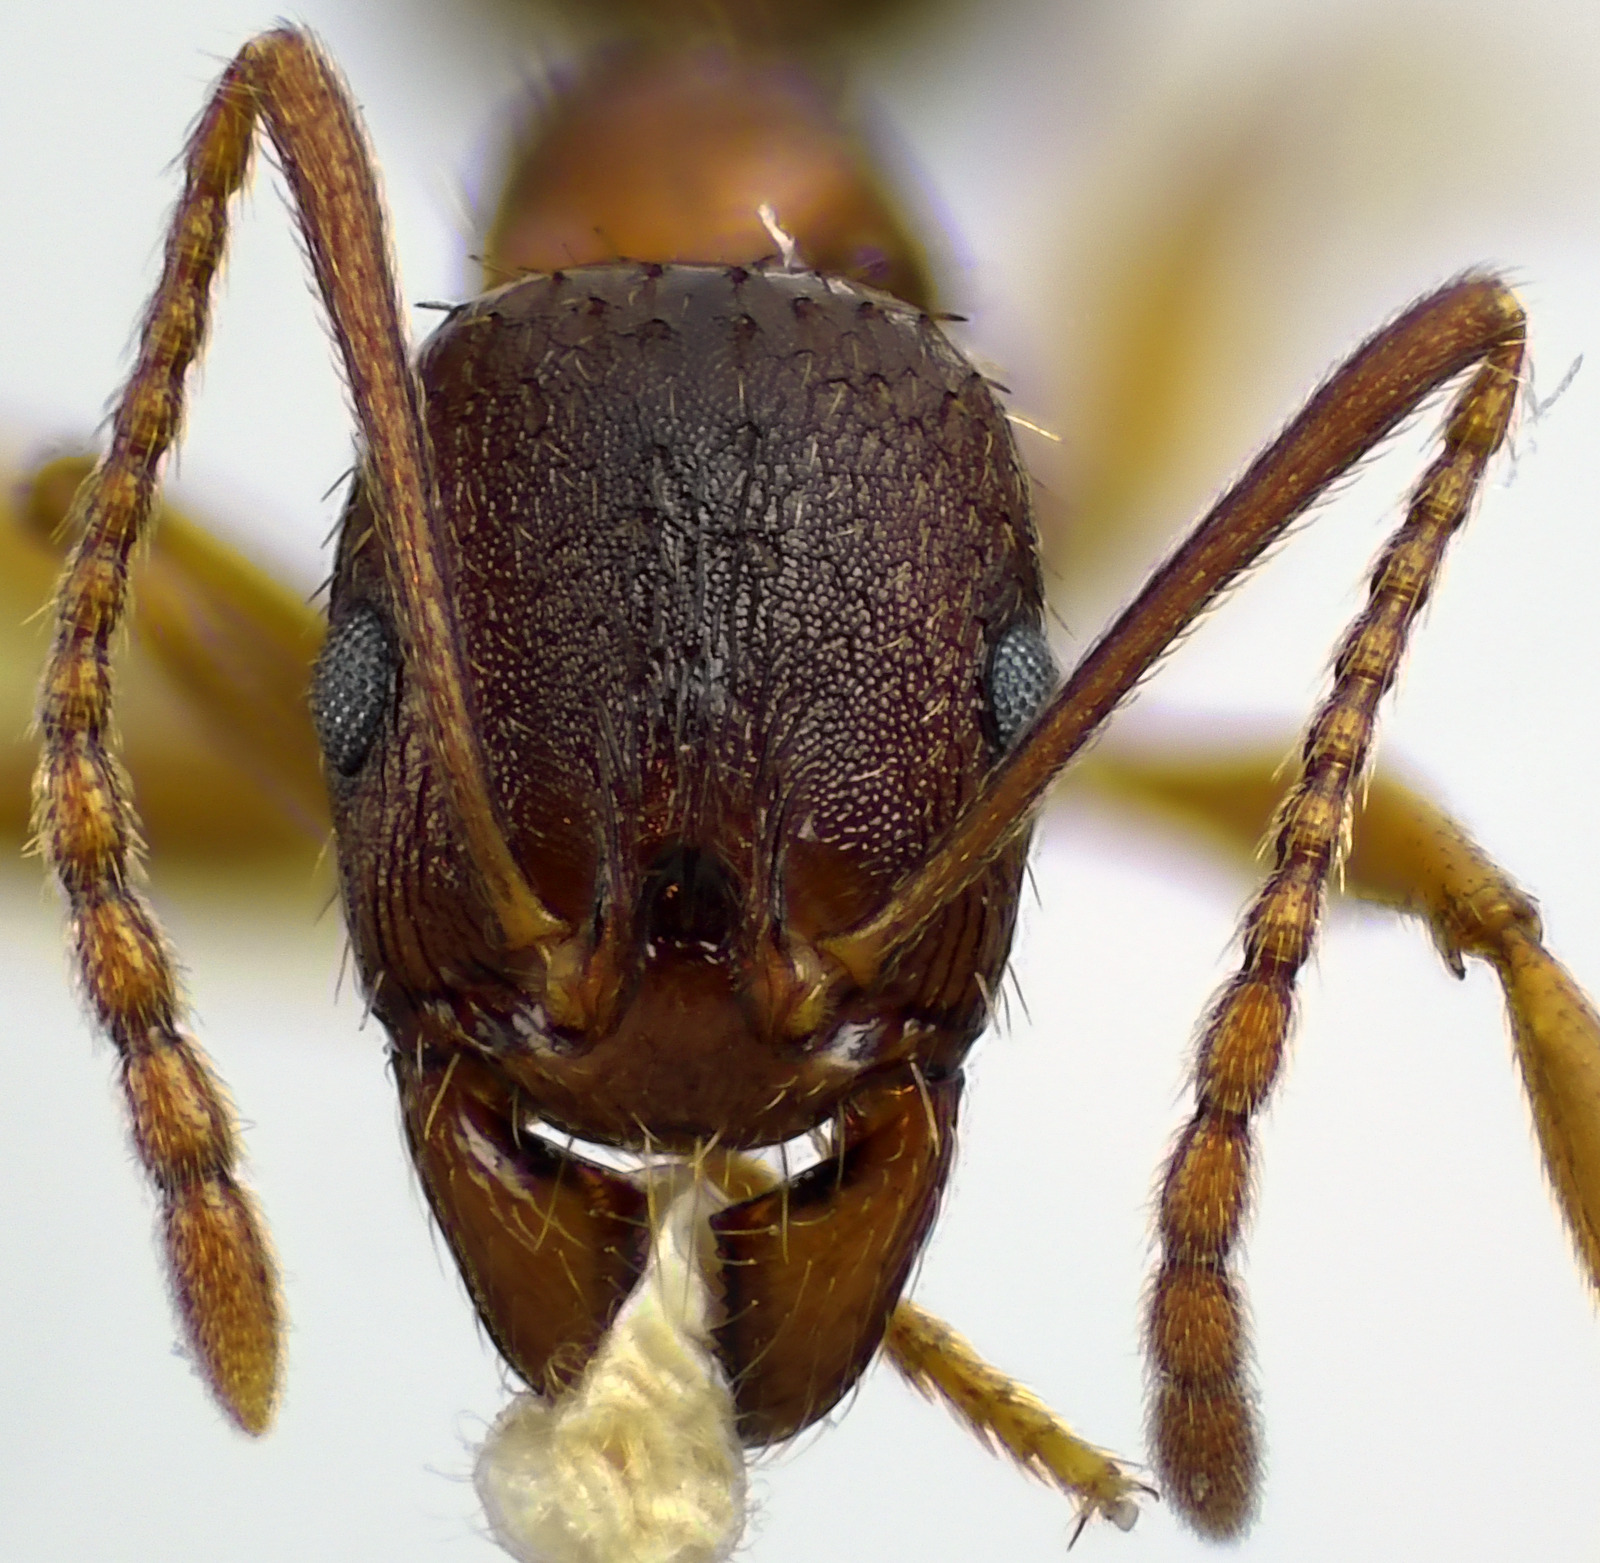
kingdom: Animalia
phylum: Arthropoda
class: Insecta
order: Hymenoptera
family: Formicidae
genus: Aphaenogaster
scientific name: Aphaenogaster rudis
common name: Winnow ant
